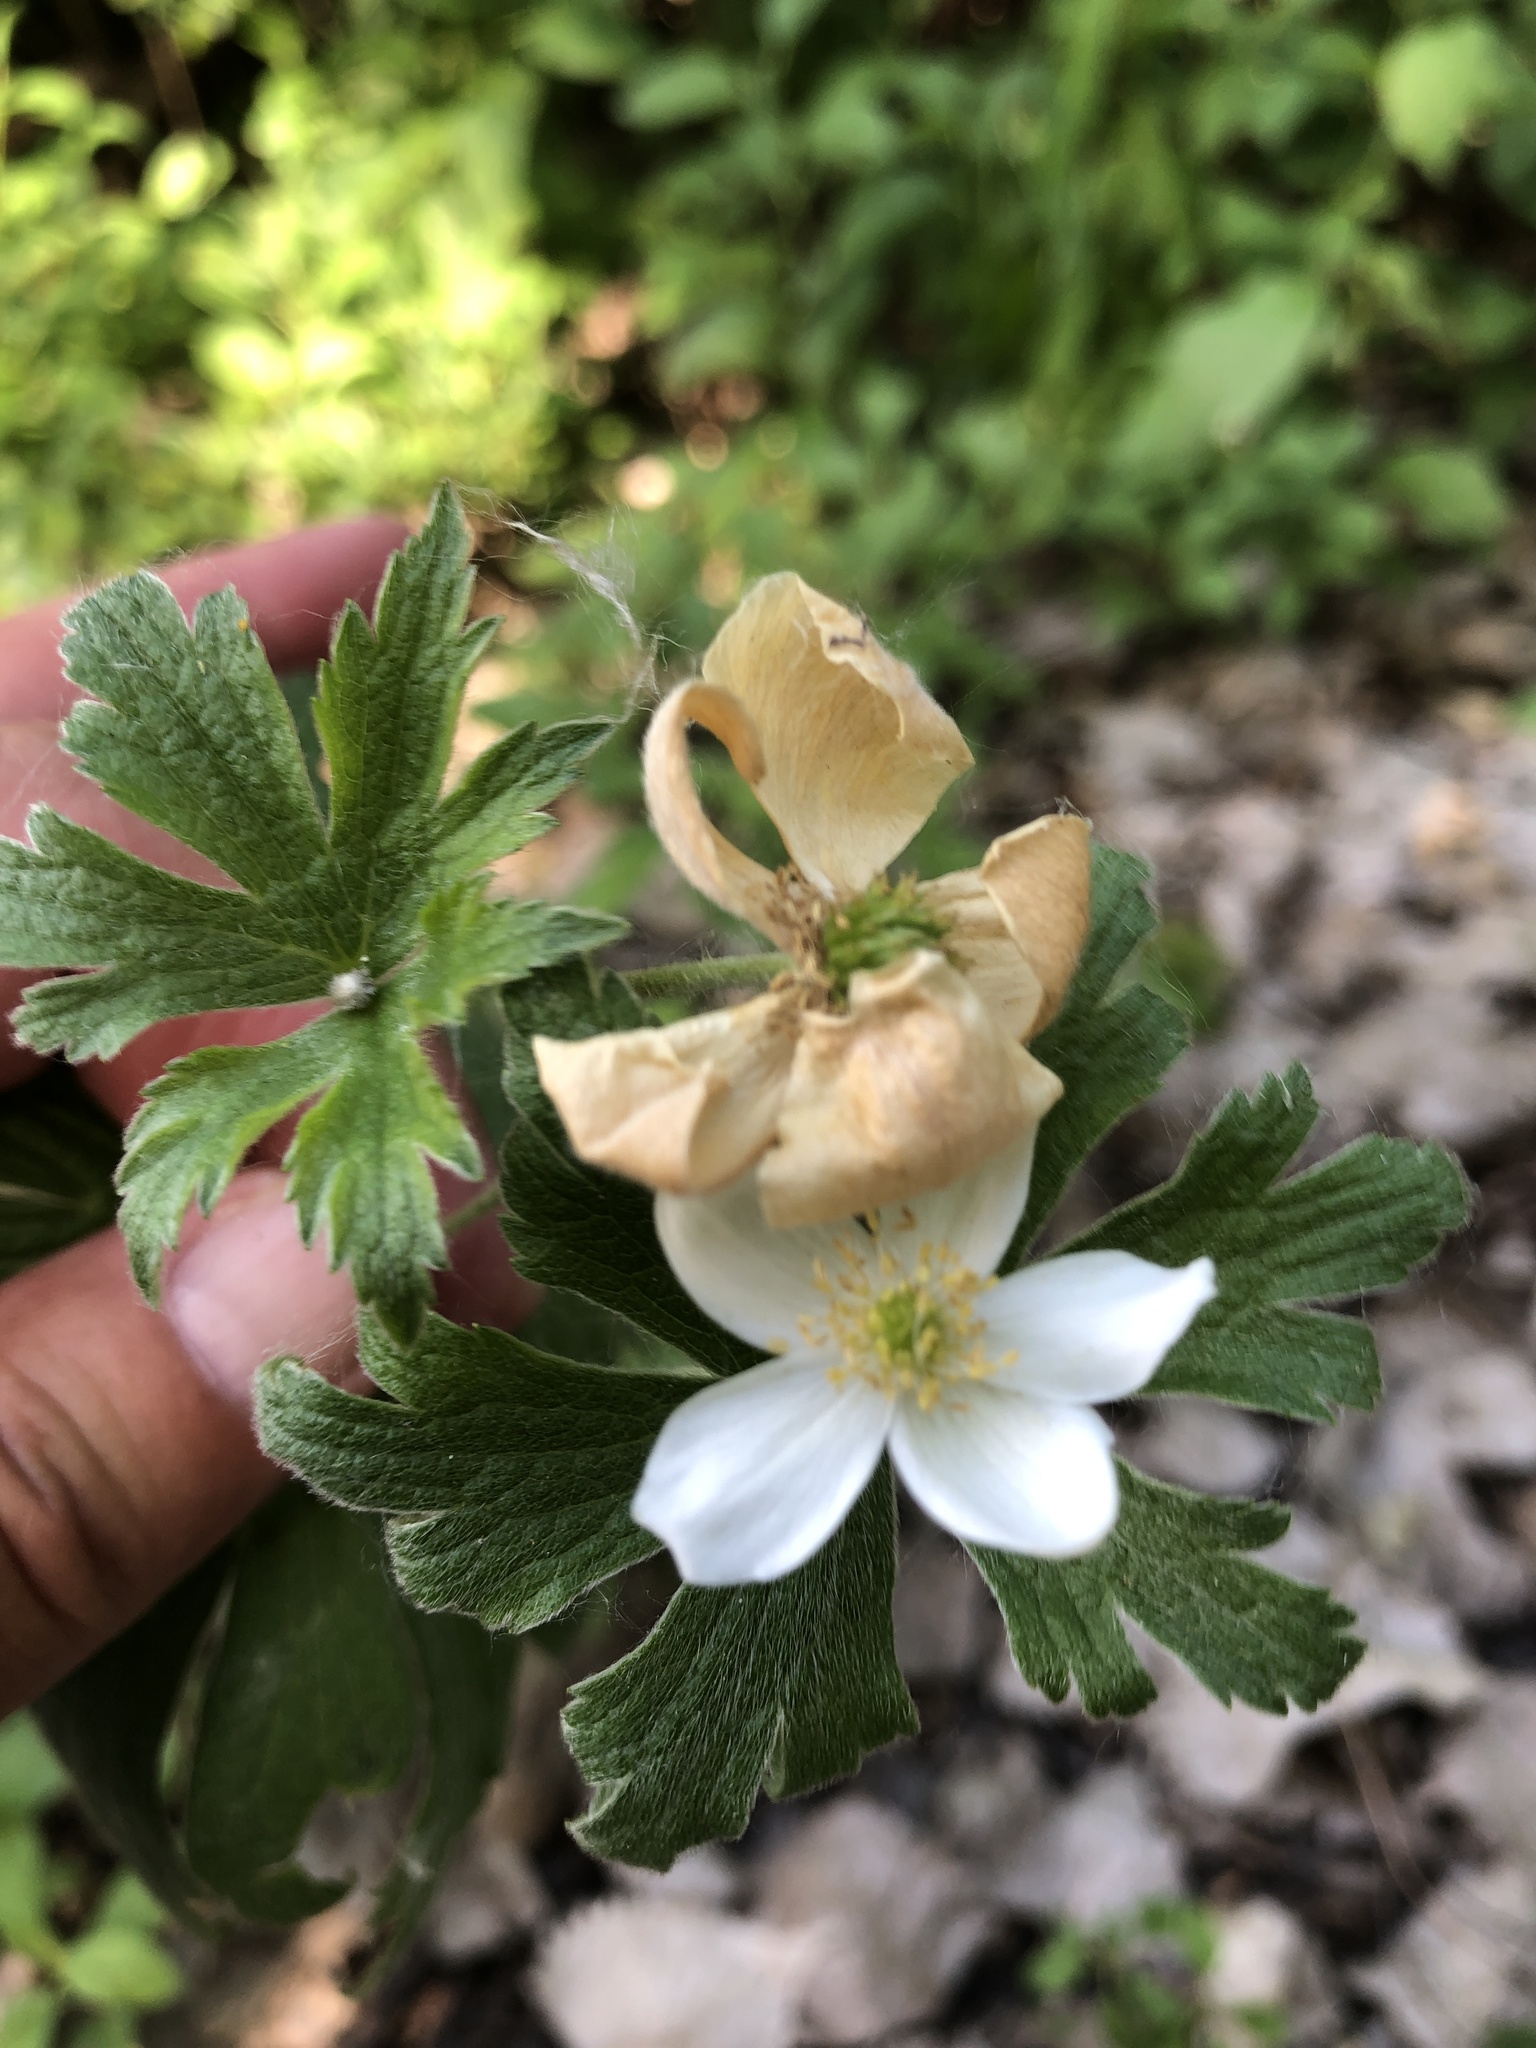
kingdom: Plantae
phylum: Tracheophyta
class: Magnoliopsida
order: Ranunculales
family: Ranunculaceae
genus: Anemonastrum
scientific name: Anemonastrum canadense
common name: Canada anemone
